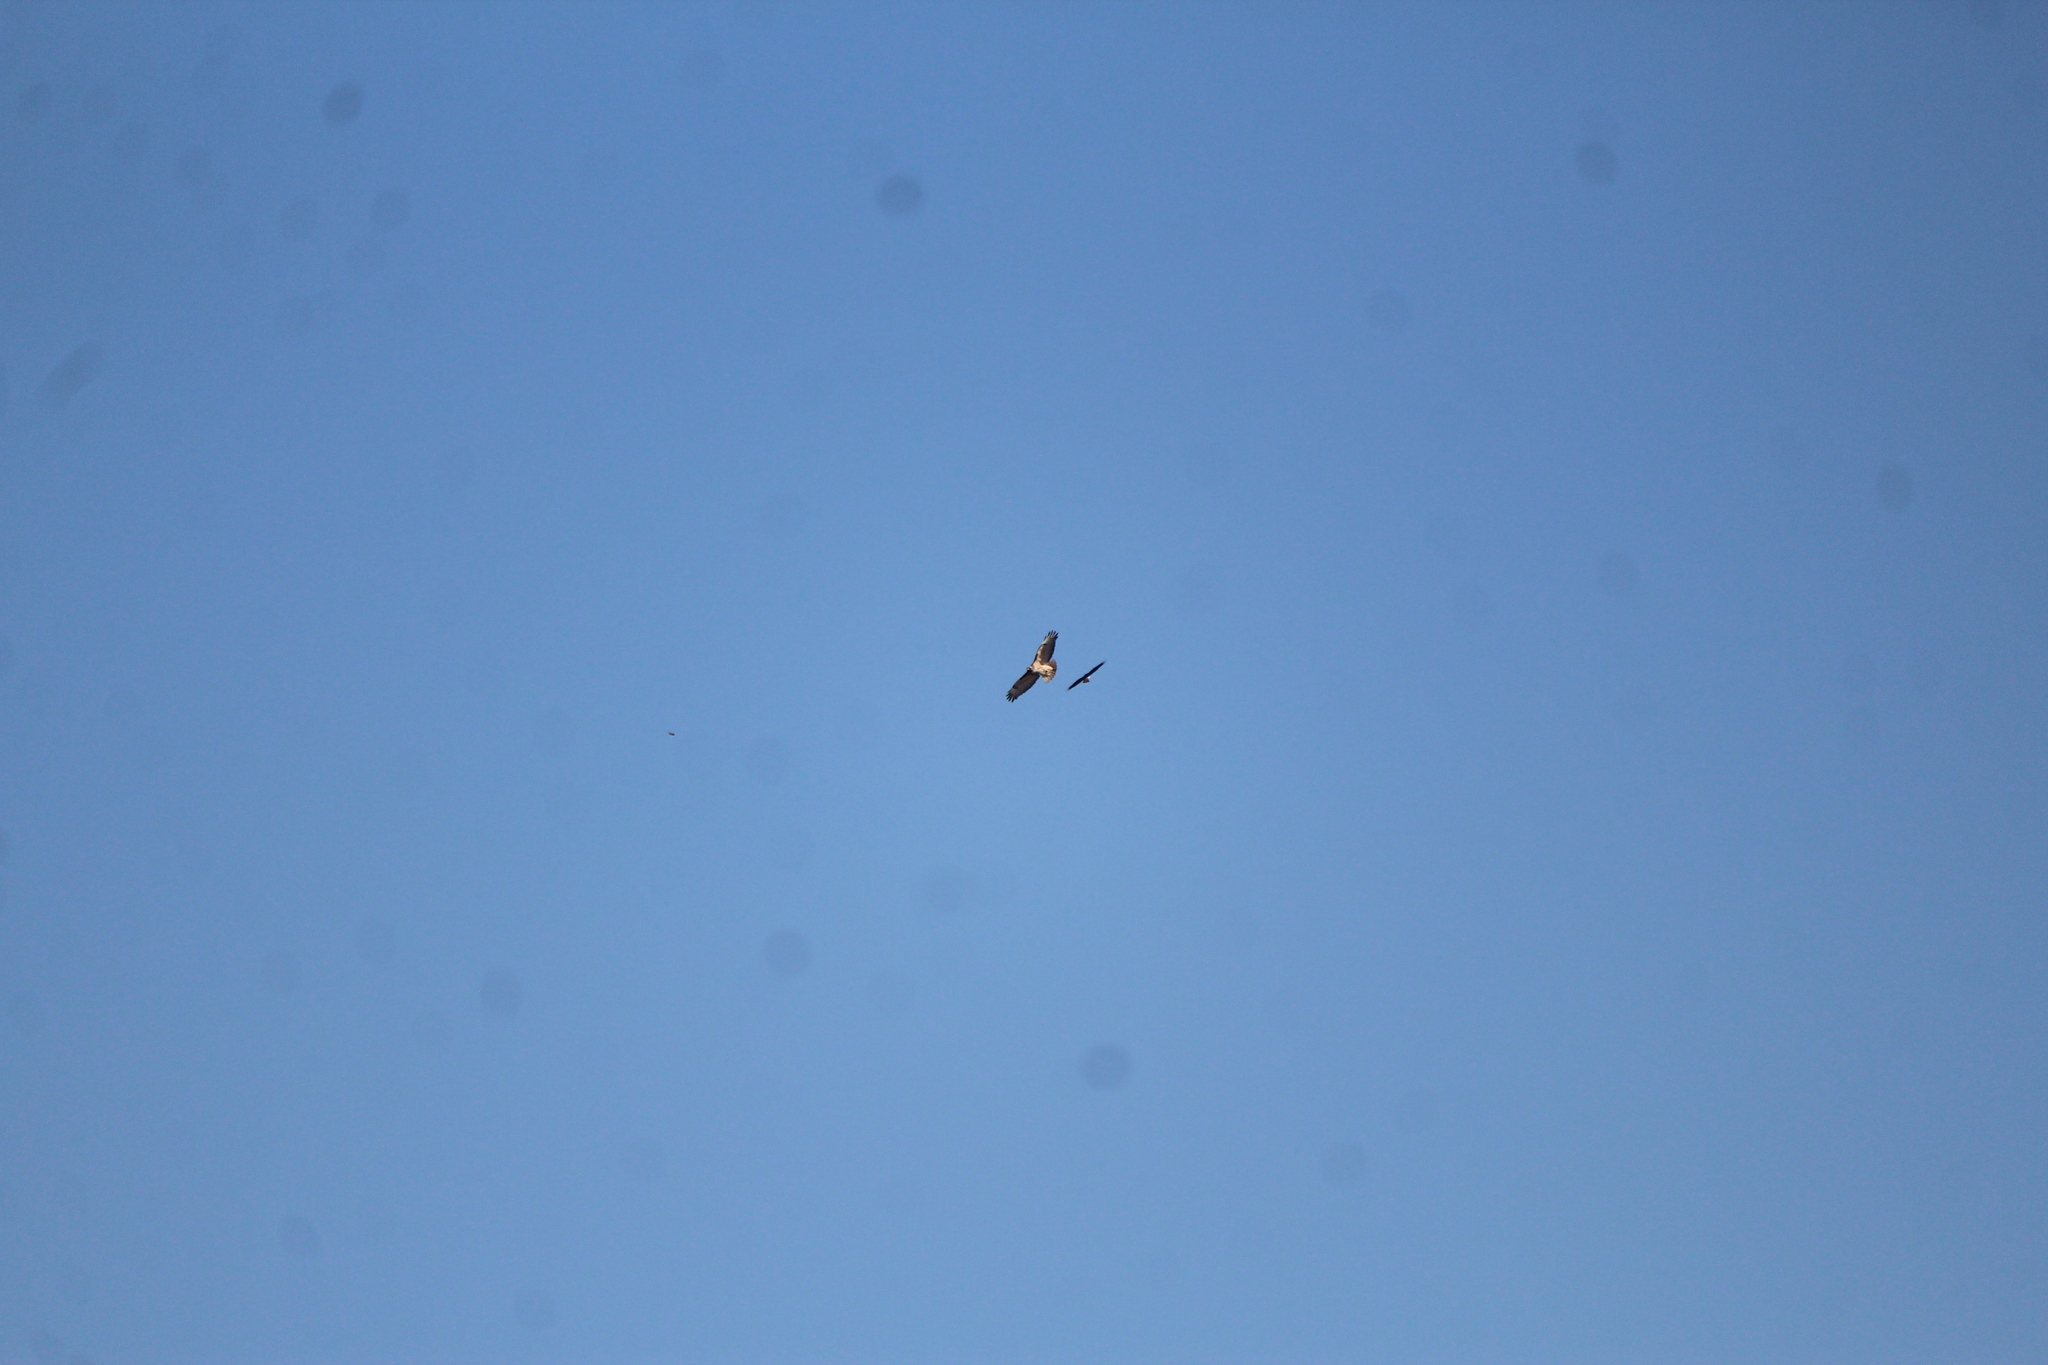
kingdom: Animalia
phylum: Chordata
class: Aves
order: Accipitriformes
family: Accipitridae
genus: Buteo
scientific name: Buteo jamaicensis
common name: Red-tailed hawk
